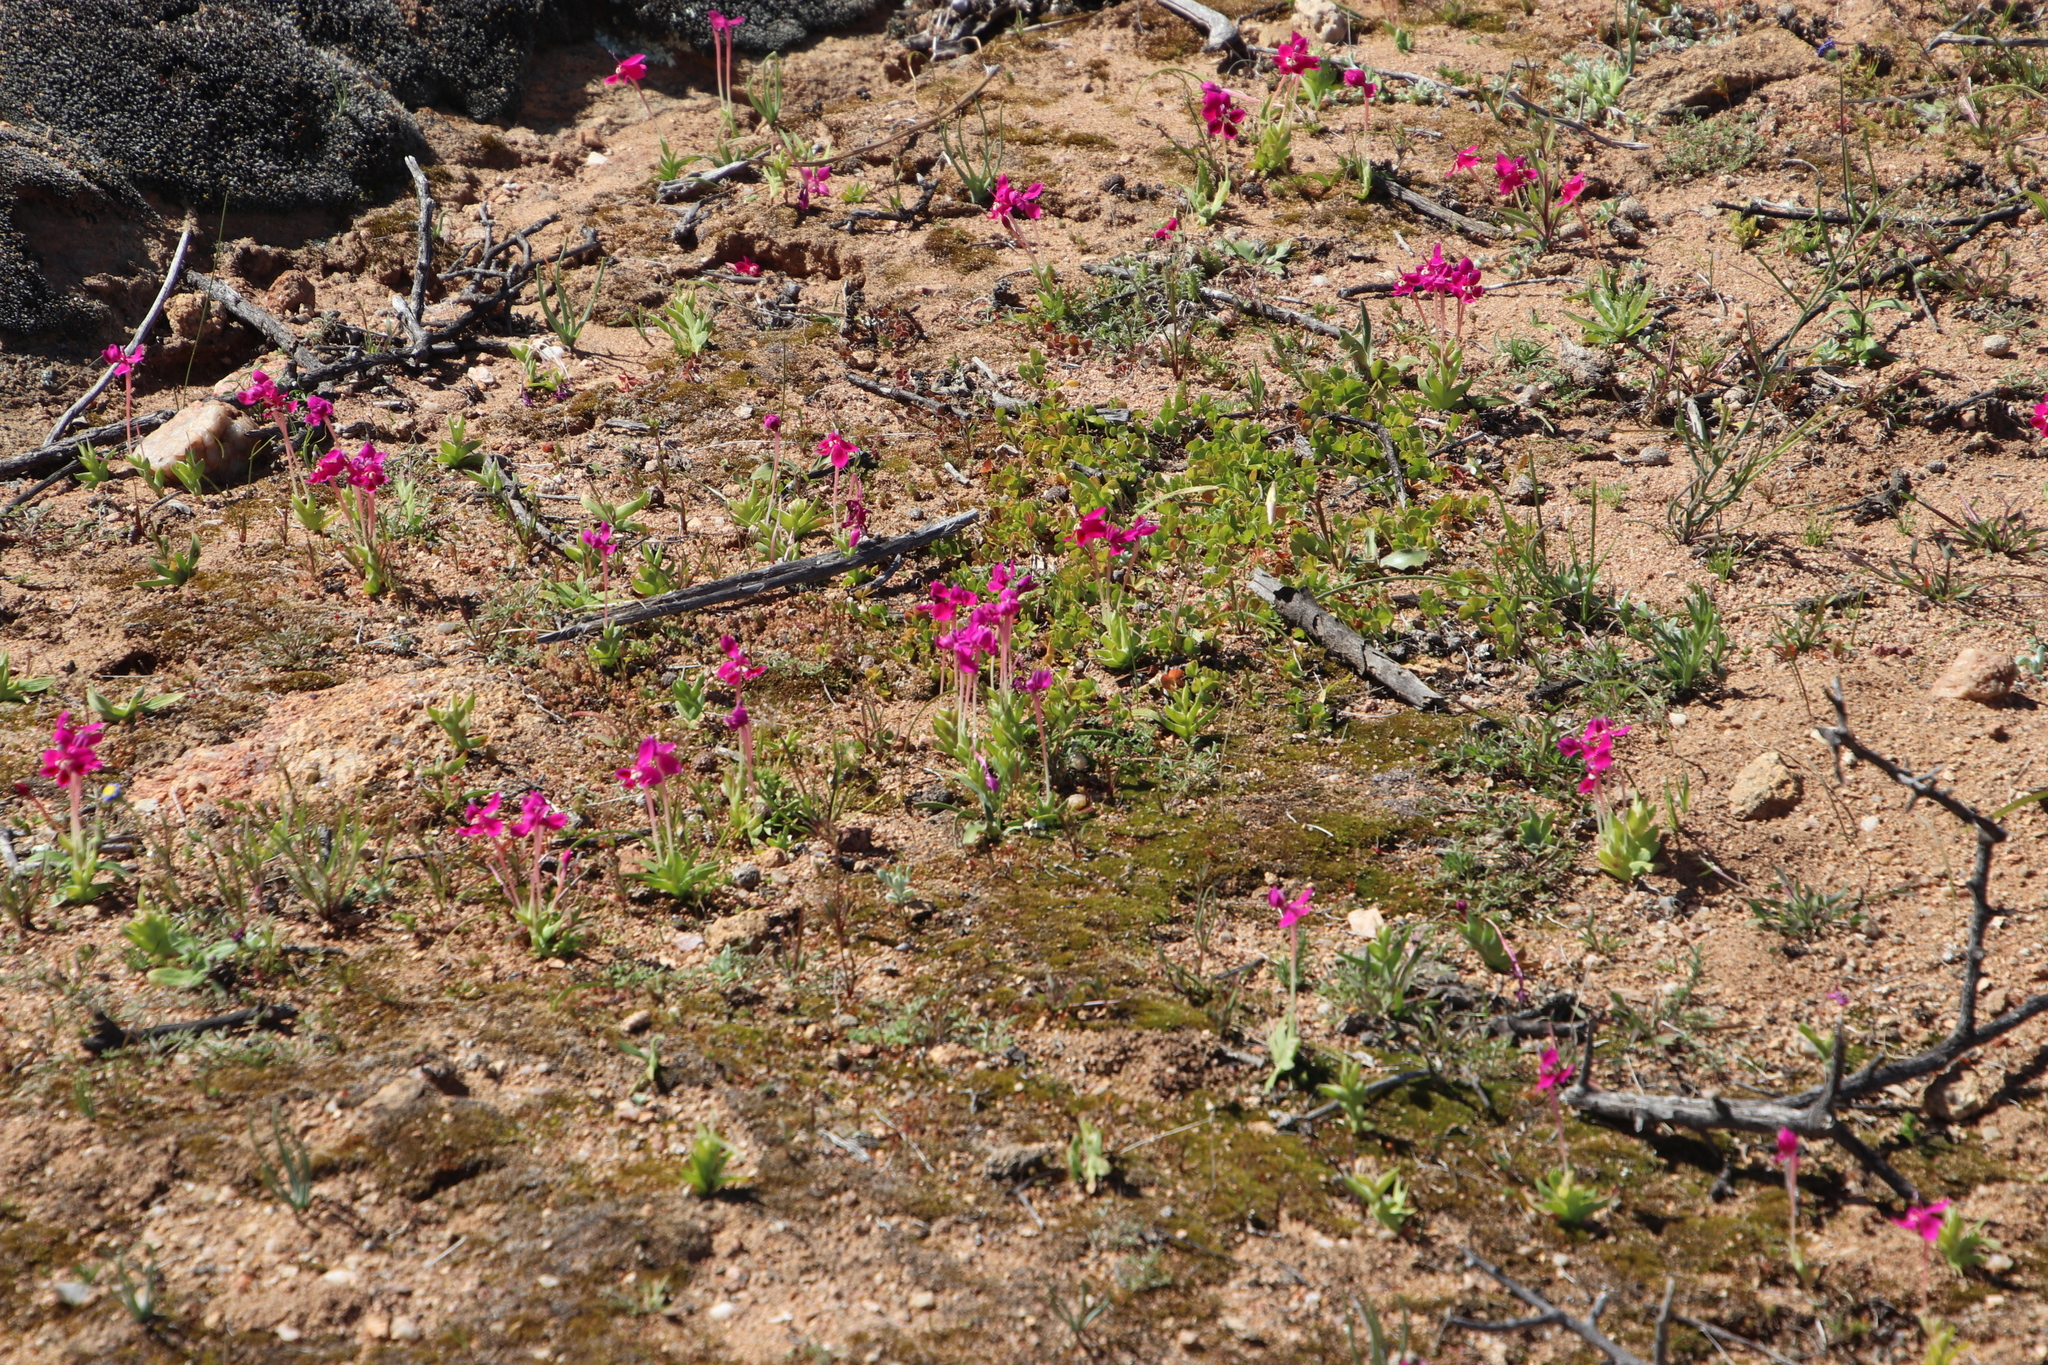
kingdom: Plantae
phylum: Tracheophyta
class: Liliopsida
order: Asparagales
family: Iridaceae
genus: Lapeirousia
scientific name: Lapeirousia silenoides
